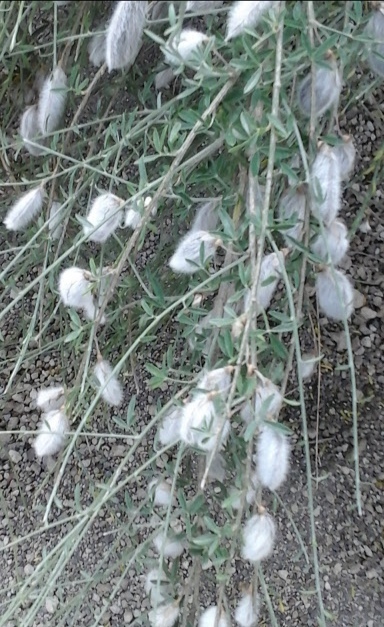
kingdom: Plantae
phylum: Tracheophyta
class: Magnoliopsida
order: Fabales
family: Fabaceae
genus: Cytisus
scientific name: Cytisus striatus
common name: Hairy-fruited broom
